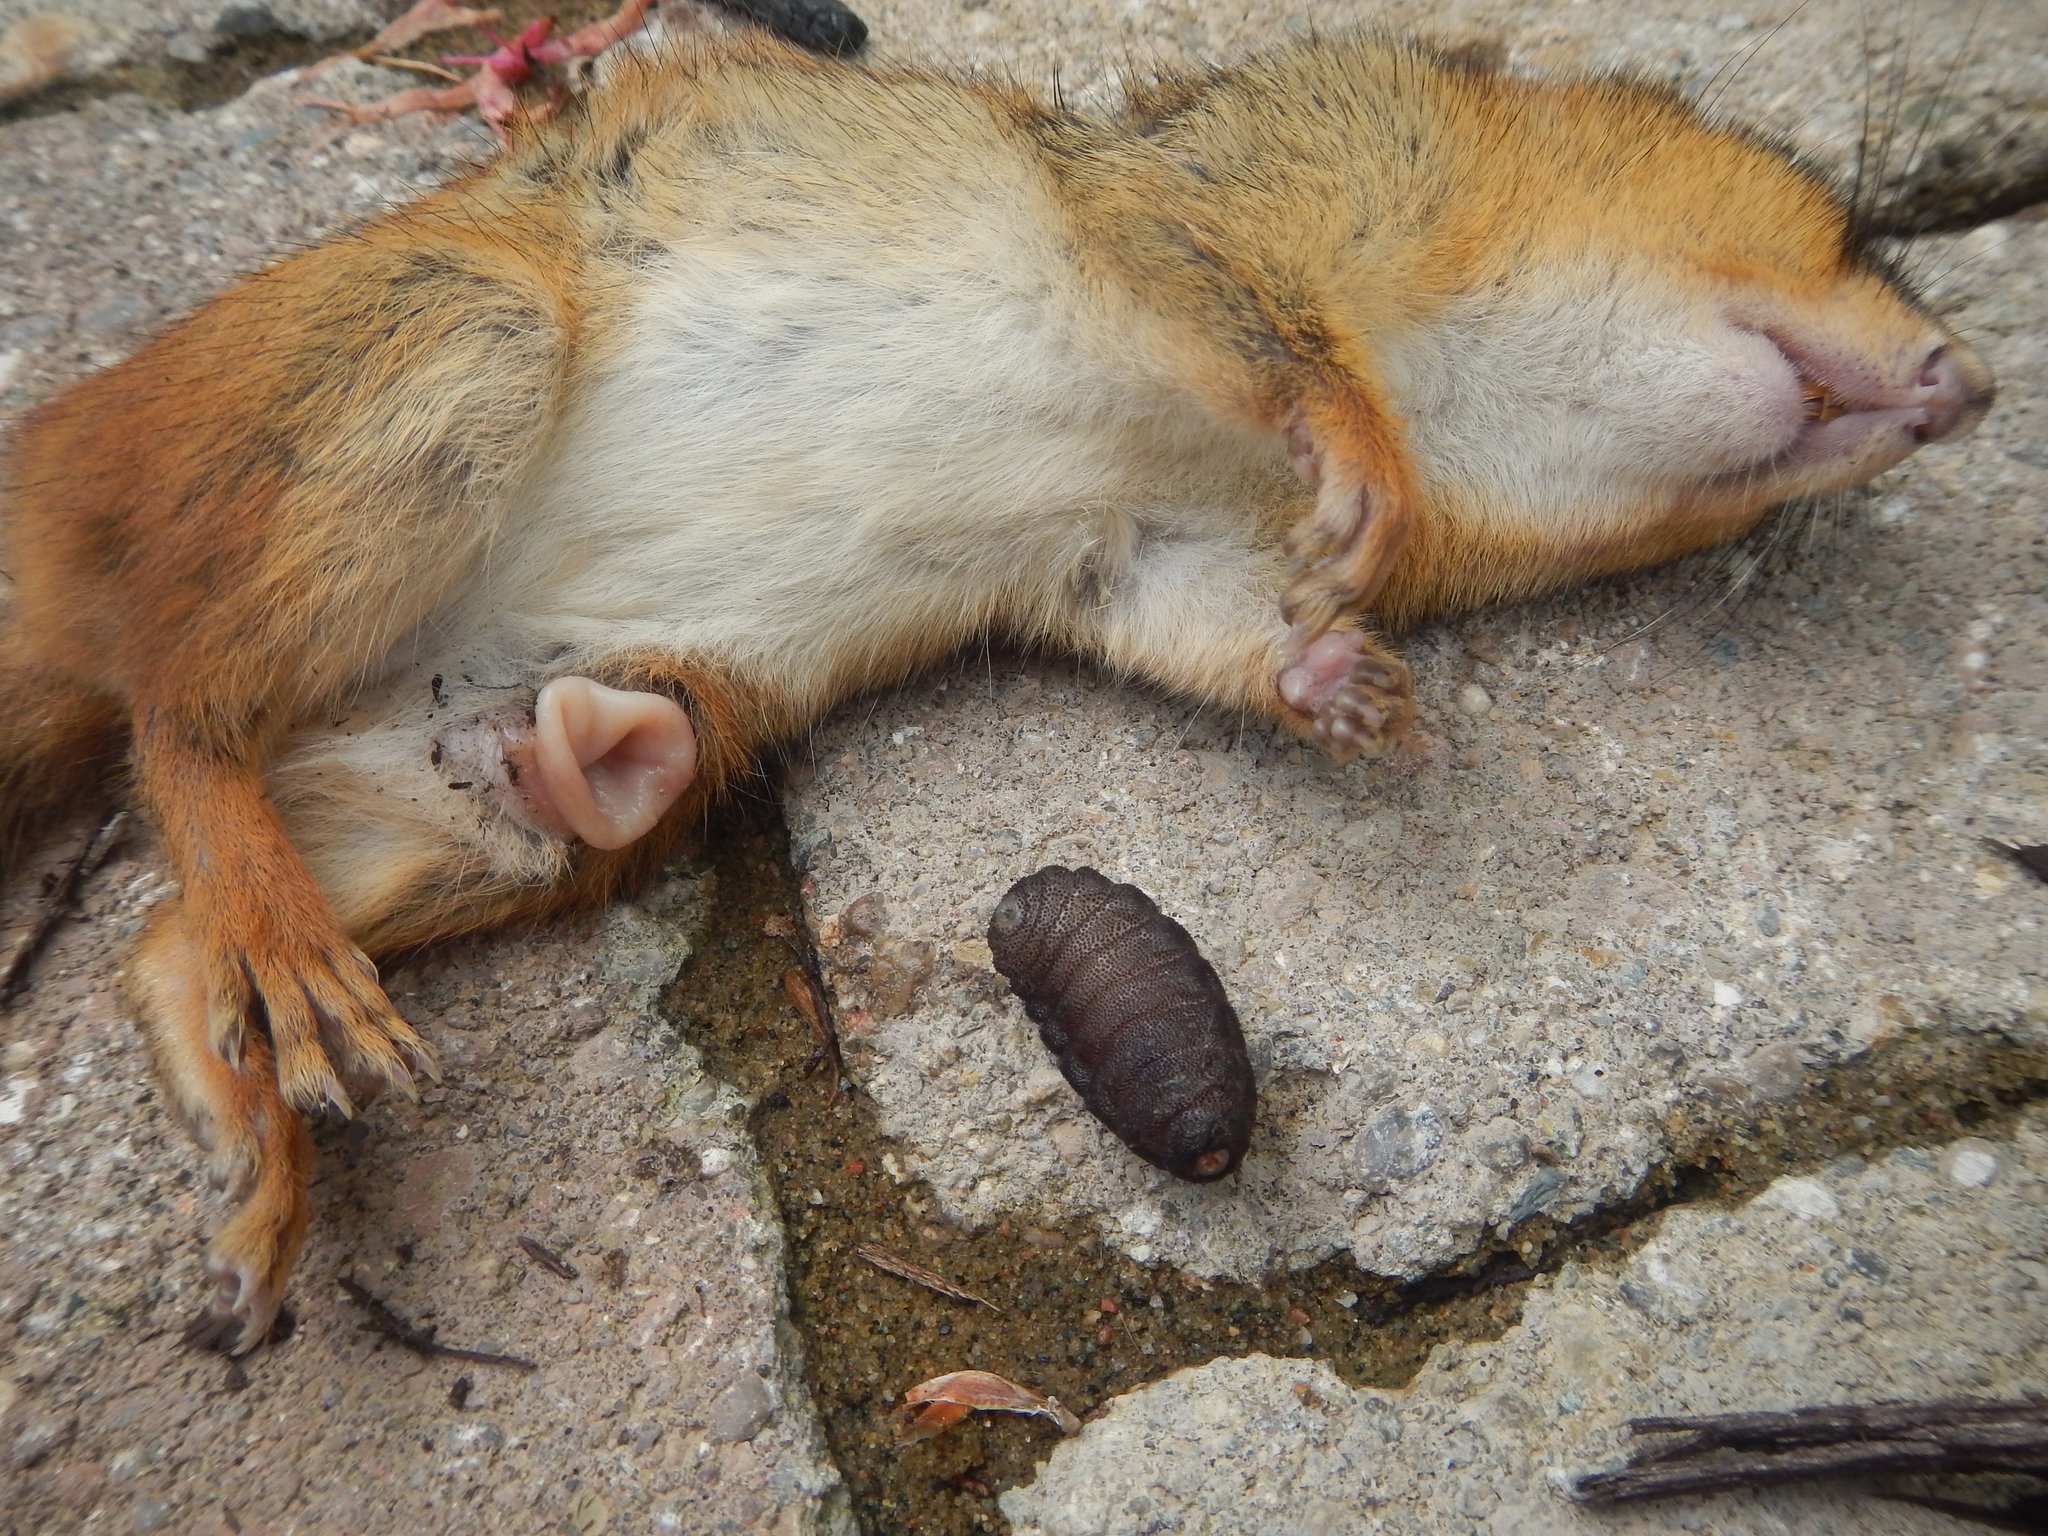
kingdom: Animalia
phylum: Arthropoda
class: Insecta
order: Diptera
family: Oestridae
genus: Cuterebra
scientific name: Cuterebra emasculator
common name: Squirrel bot fly
